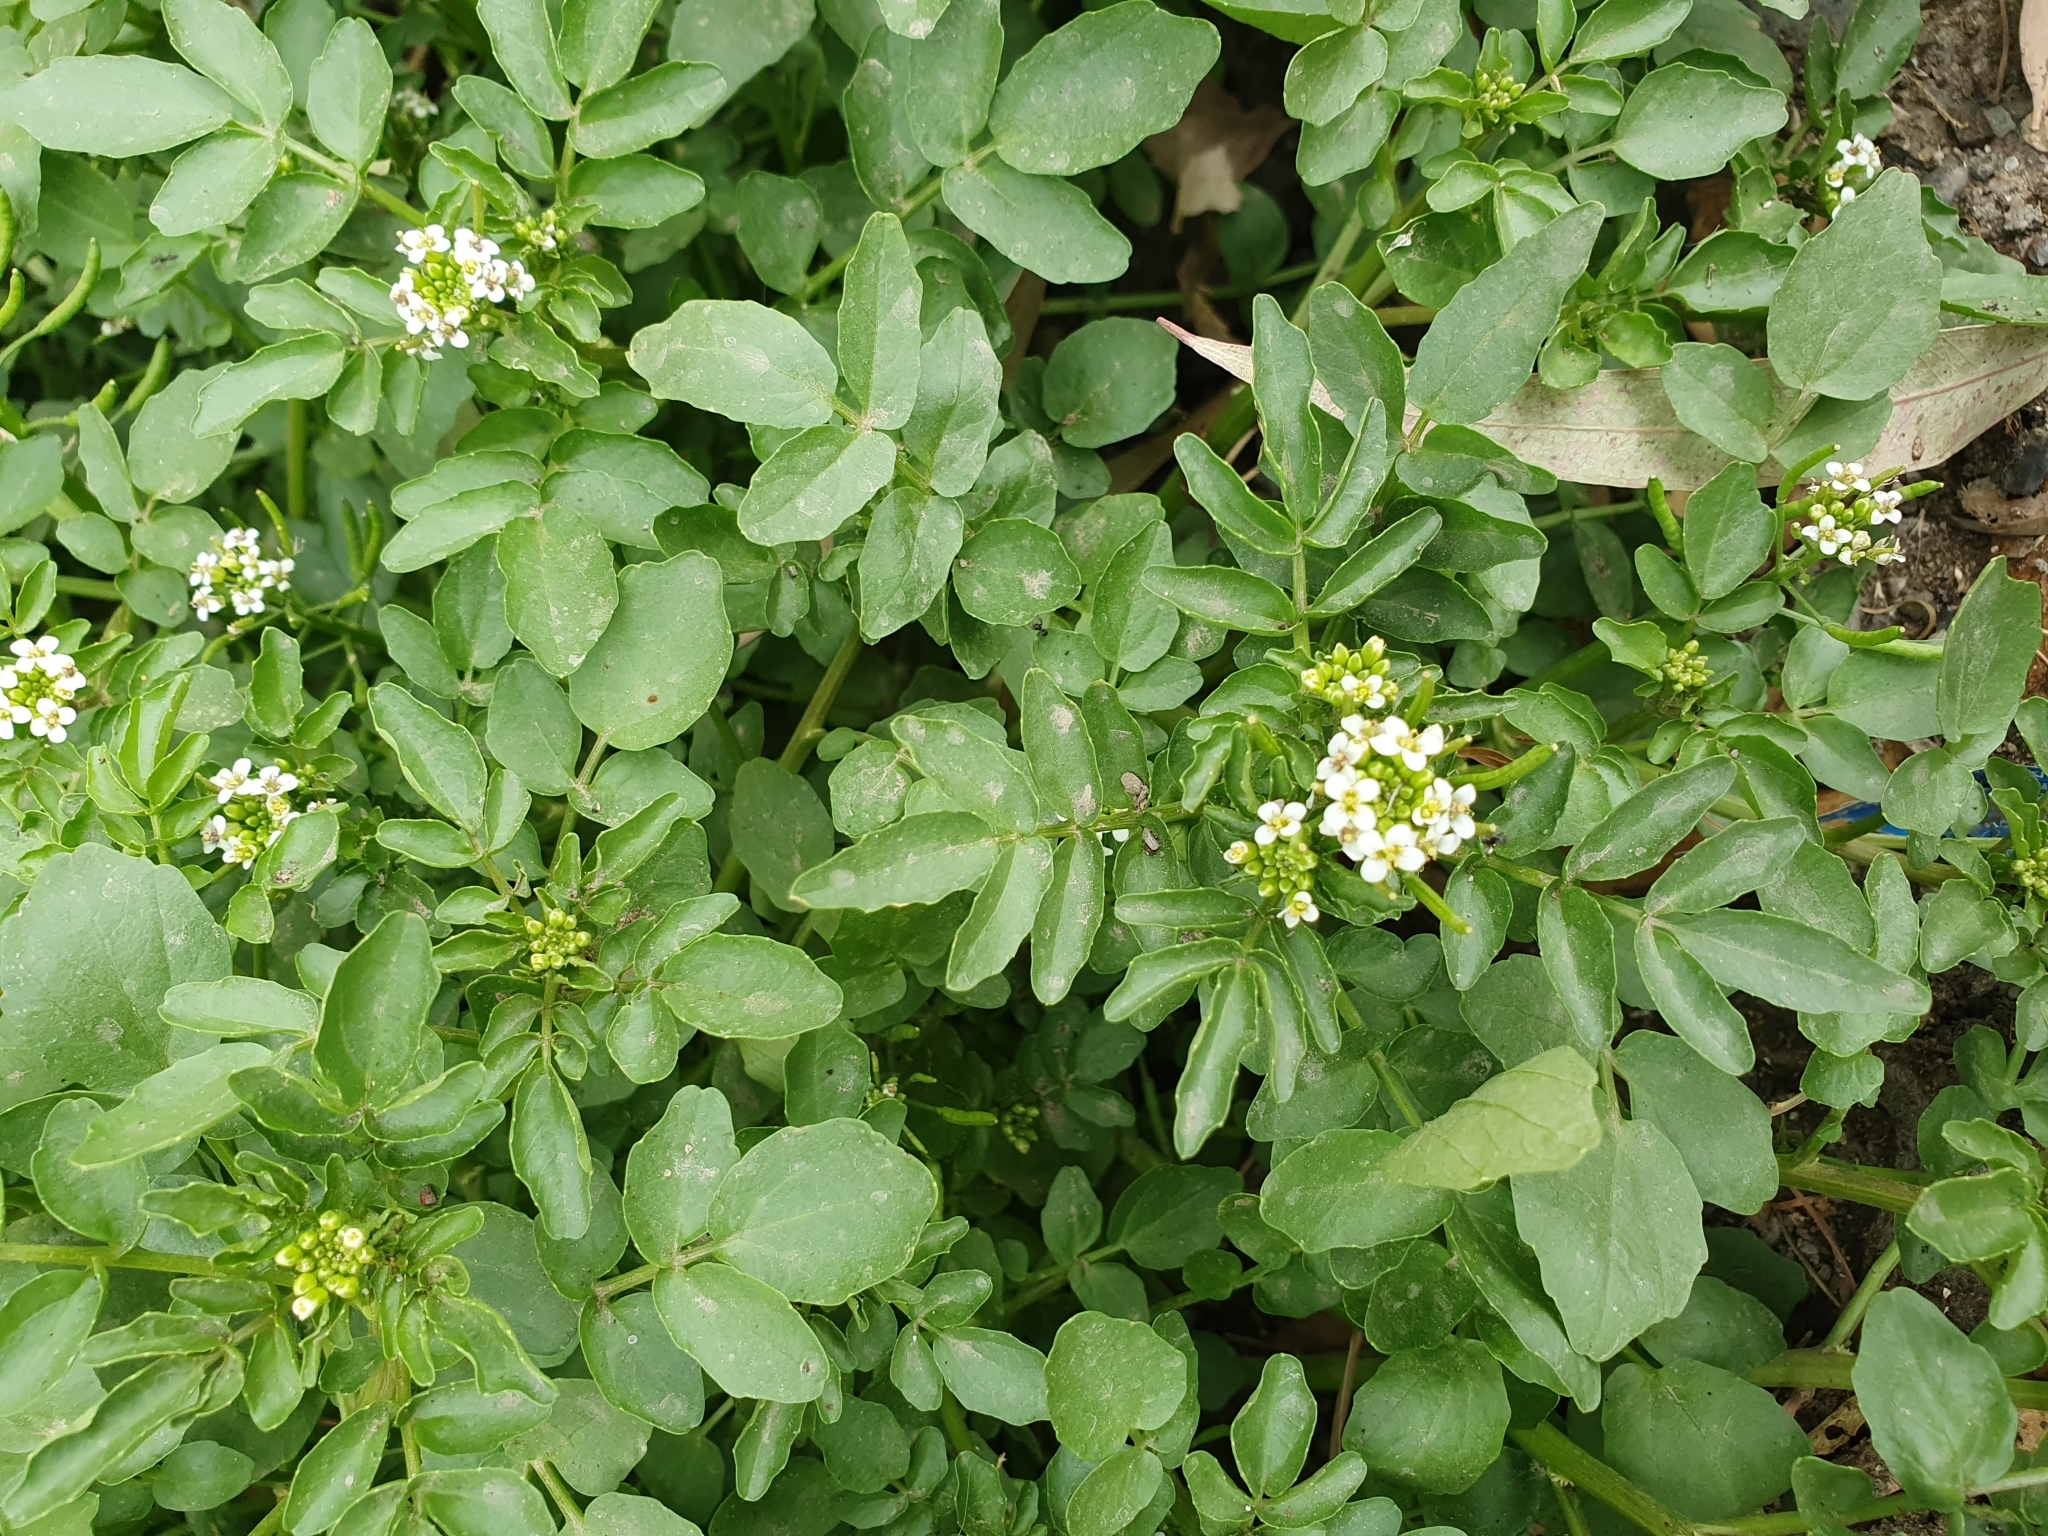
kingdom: Plantae
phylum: Tracheophyta
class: Magnoliopsida
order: Brassicales
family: Brassicaceae
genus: Nasturtium
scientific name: Nasturtium officinale
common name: Watercress
